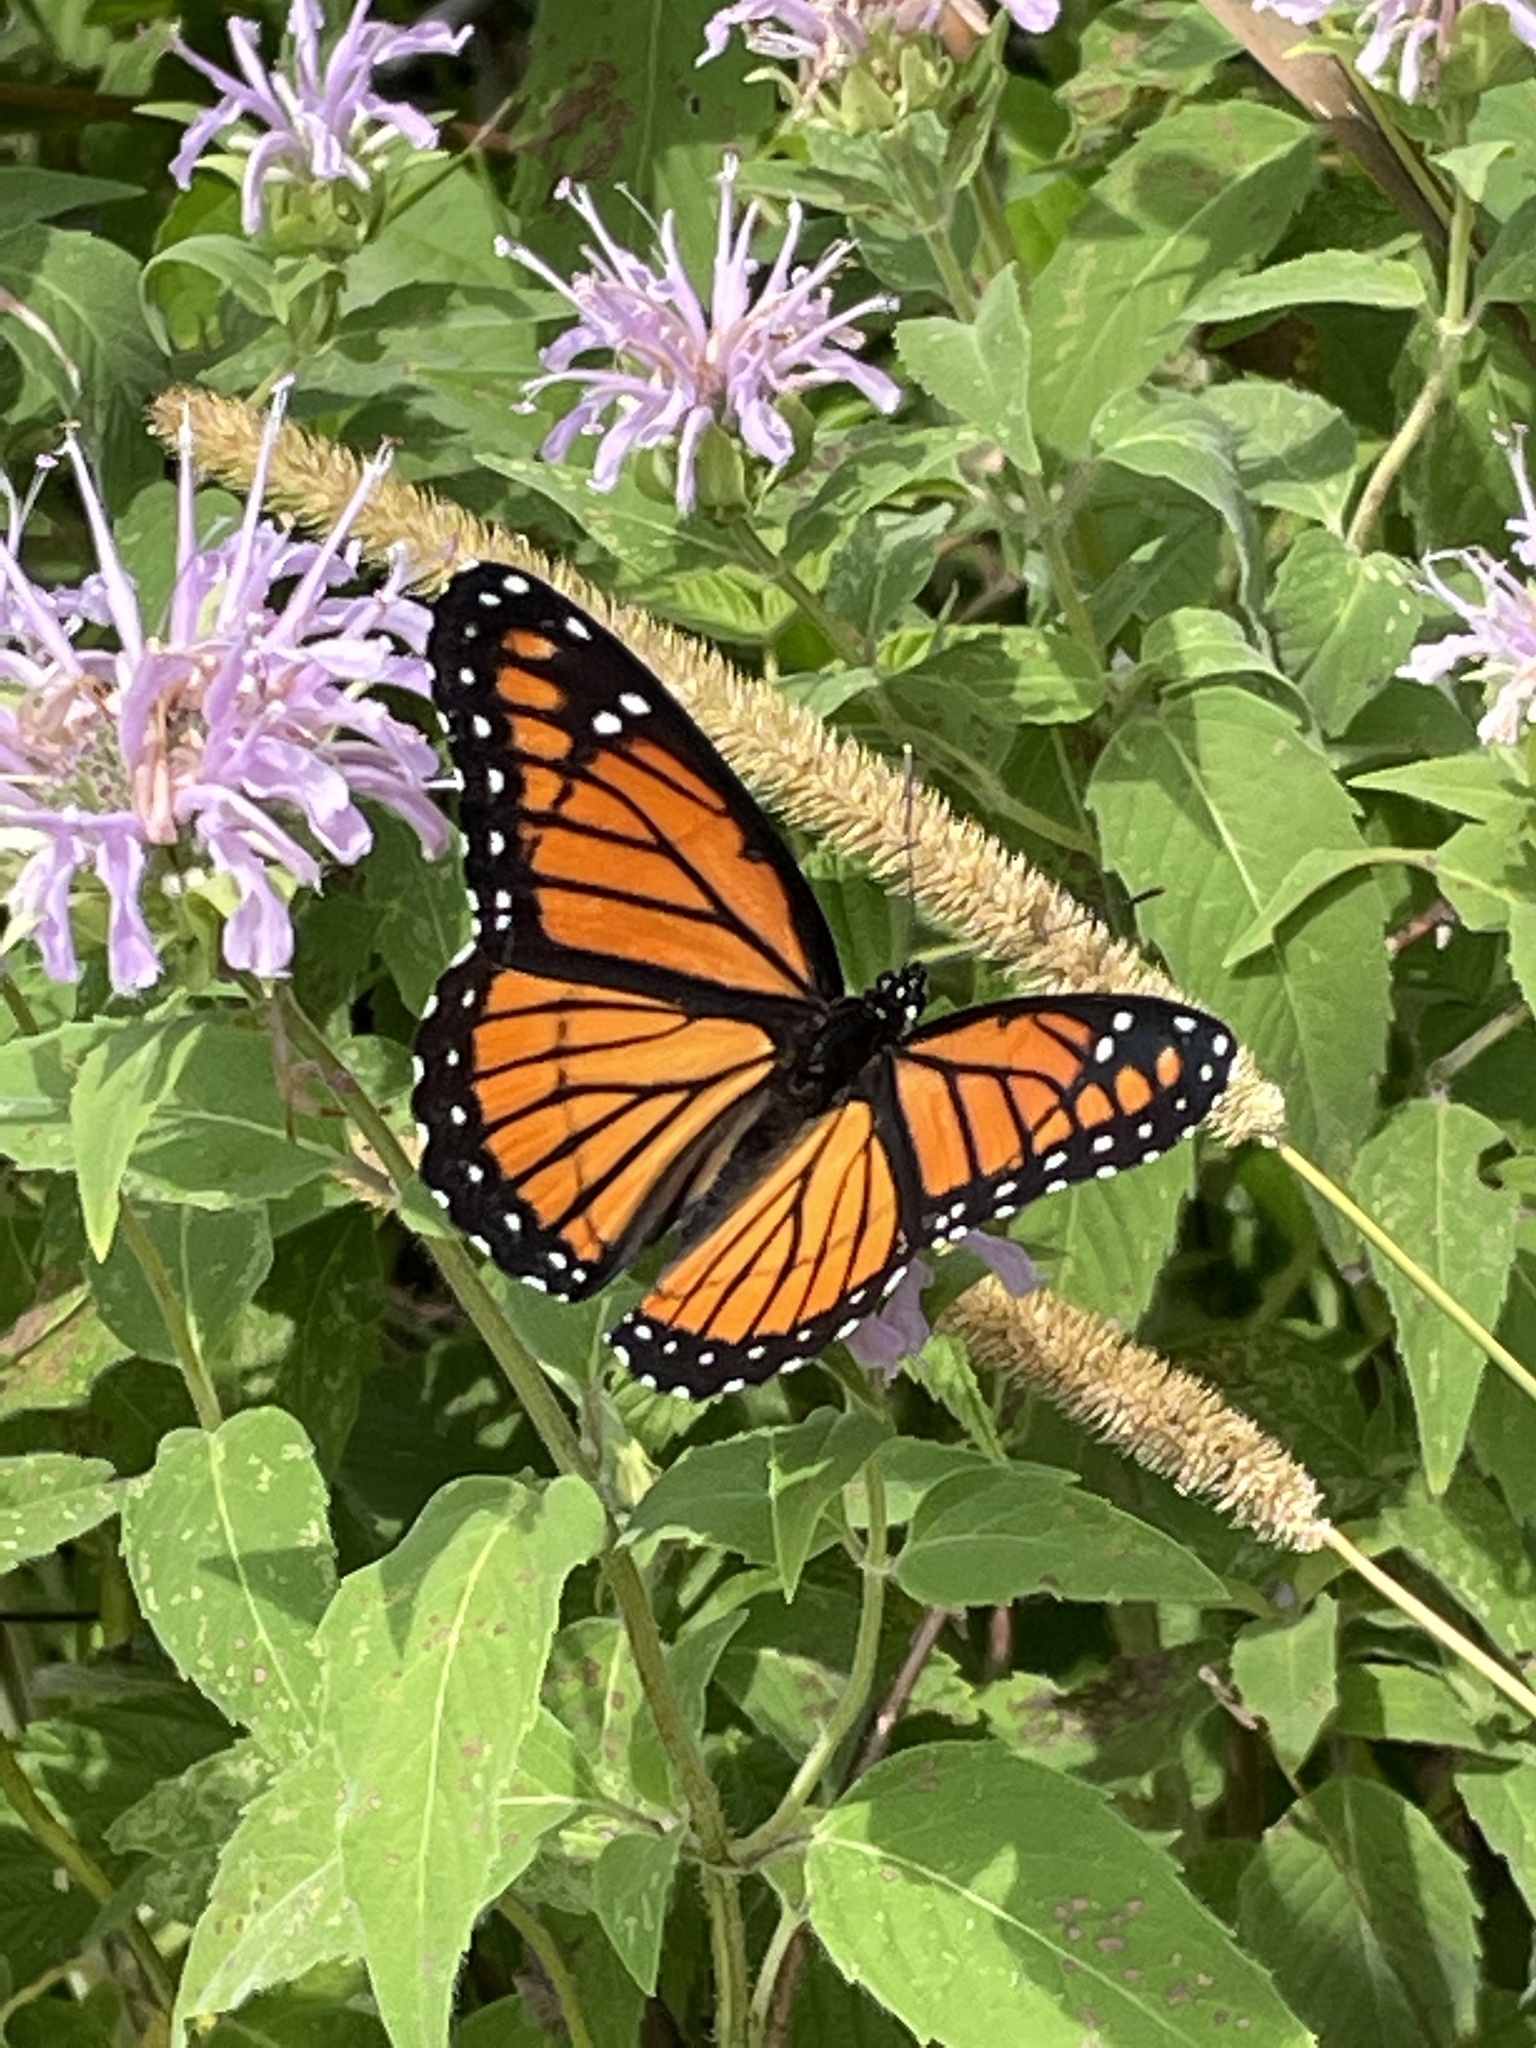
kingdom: Animalia
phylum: Arthropoda
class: Insecta
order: Lepidoptera
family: Nymphalidae
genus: Limenitis
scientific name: Limenitis archippus
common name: Viceroy
